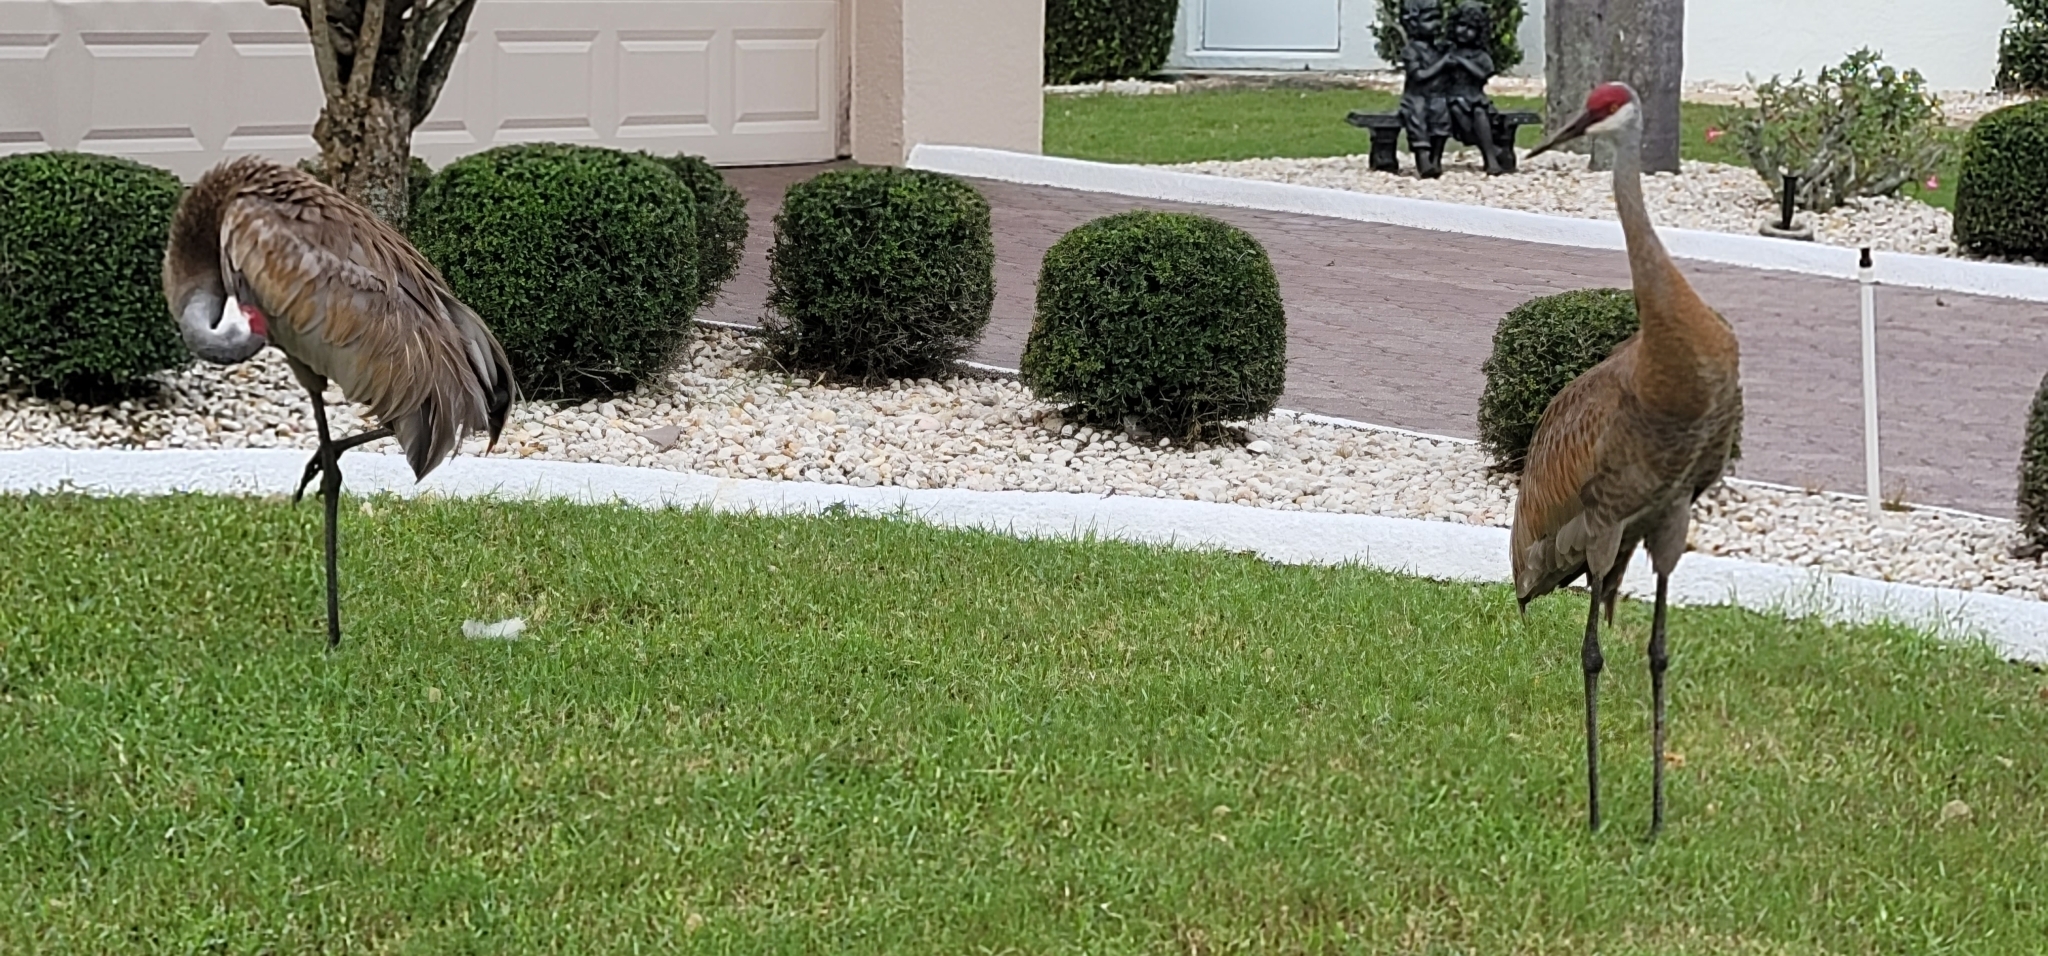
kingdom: Animalia
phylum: Chordata
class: Aves
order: Gruiformes
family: Gruidae
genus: Grus
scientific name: Grus canadensis
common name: Sandhill crane
